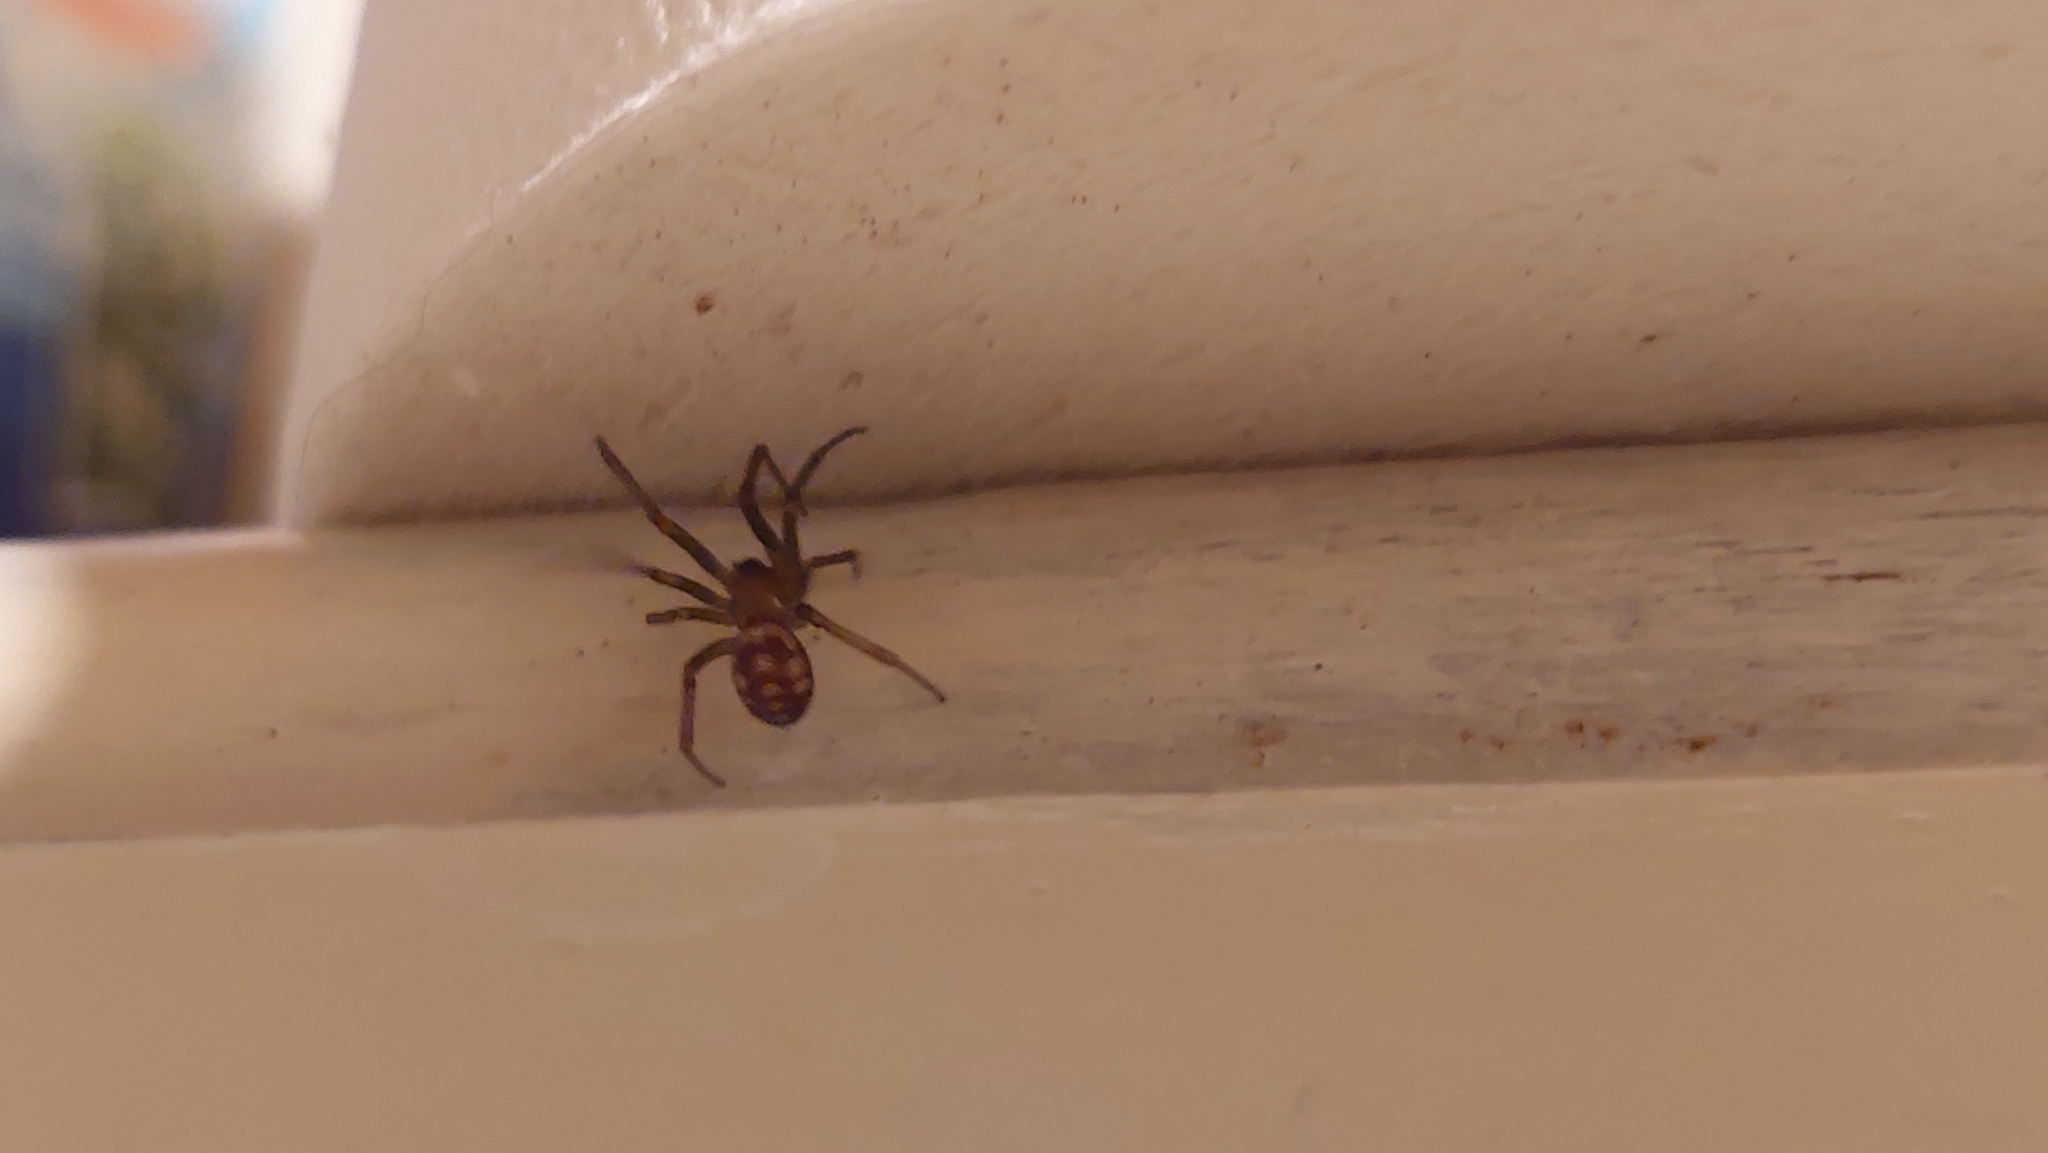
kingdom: Animalia
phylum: Arthropoda
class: Arachnida
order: Araneae
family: Theridiidae
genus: Steatoda
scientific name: Steatoda grossa
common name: False black widow
